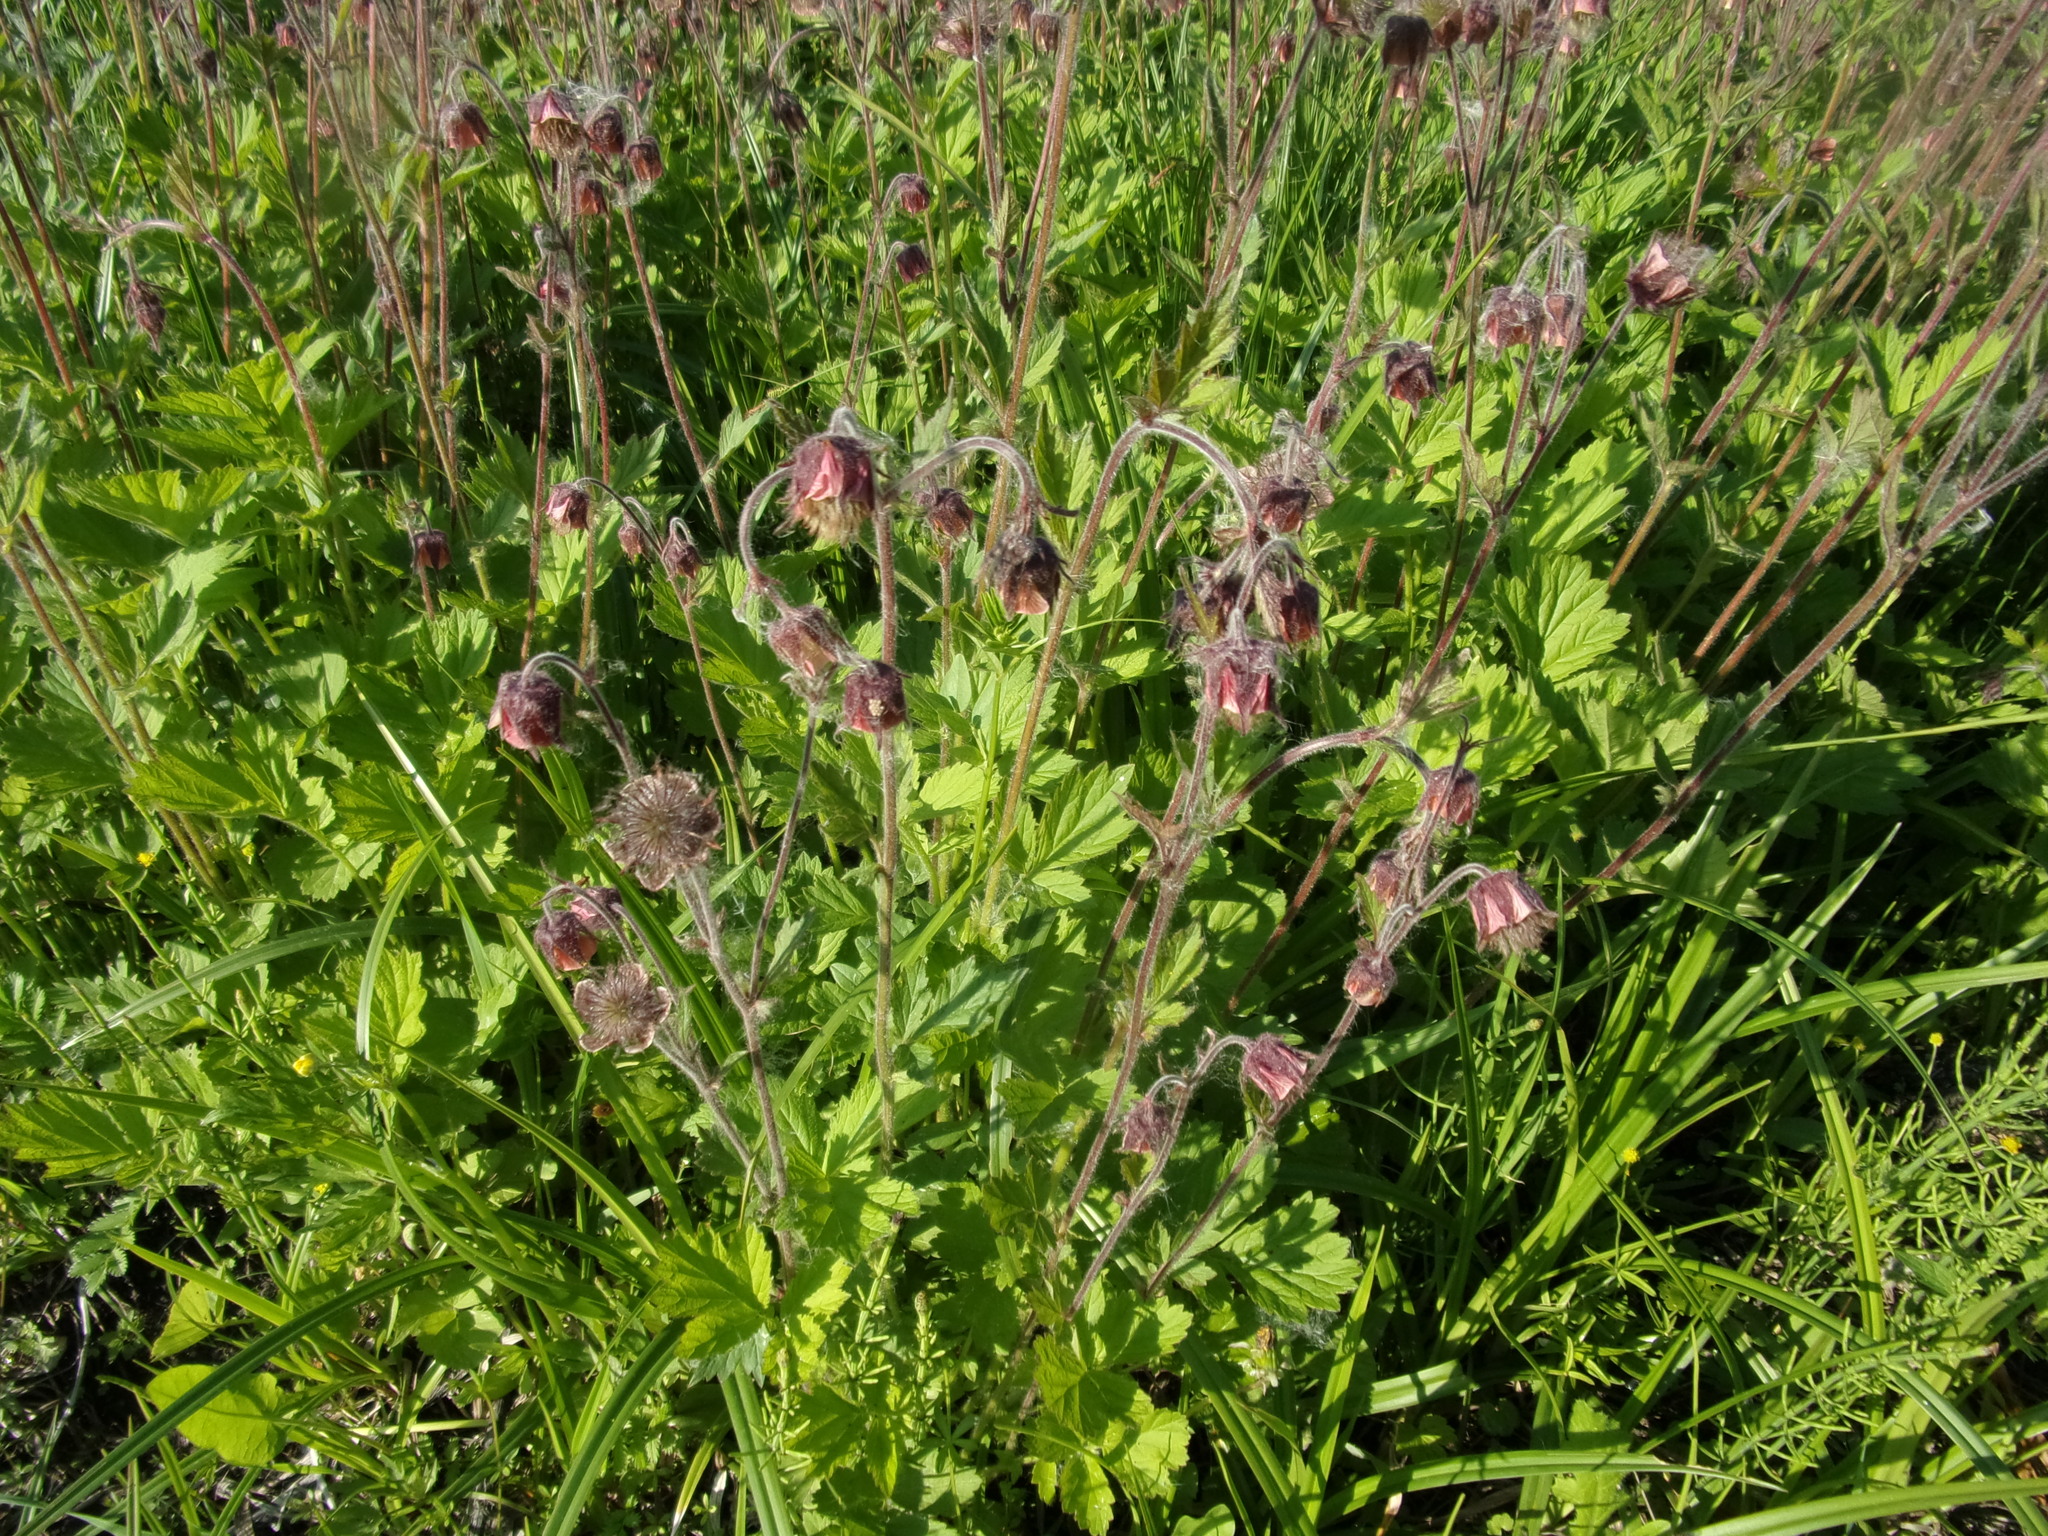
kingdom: Plantae
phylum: Tracheophyta
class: Magnoliopsida
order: Rosales
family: Rosaceae
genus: Geum
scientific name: Geum rivale
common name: Water avens
